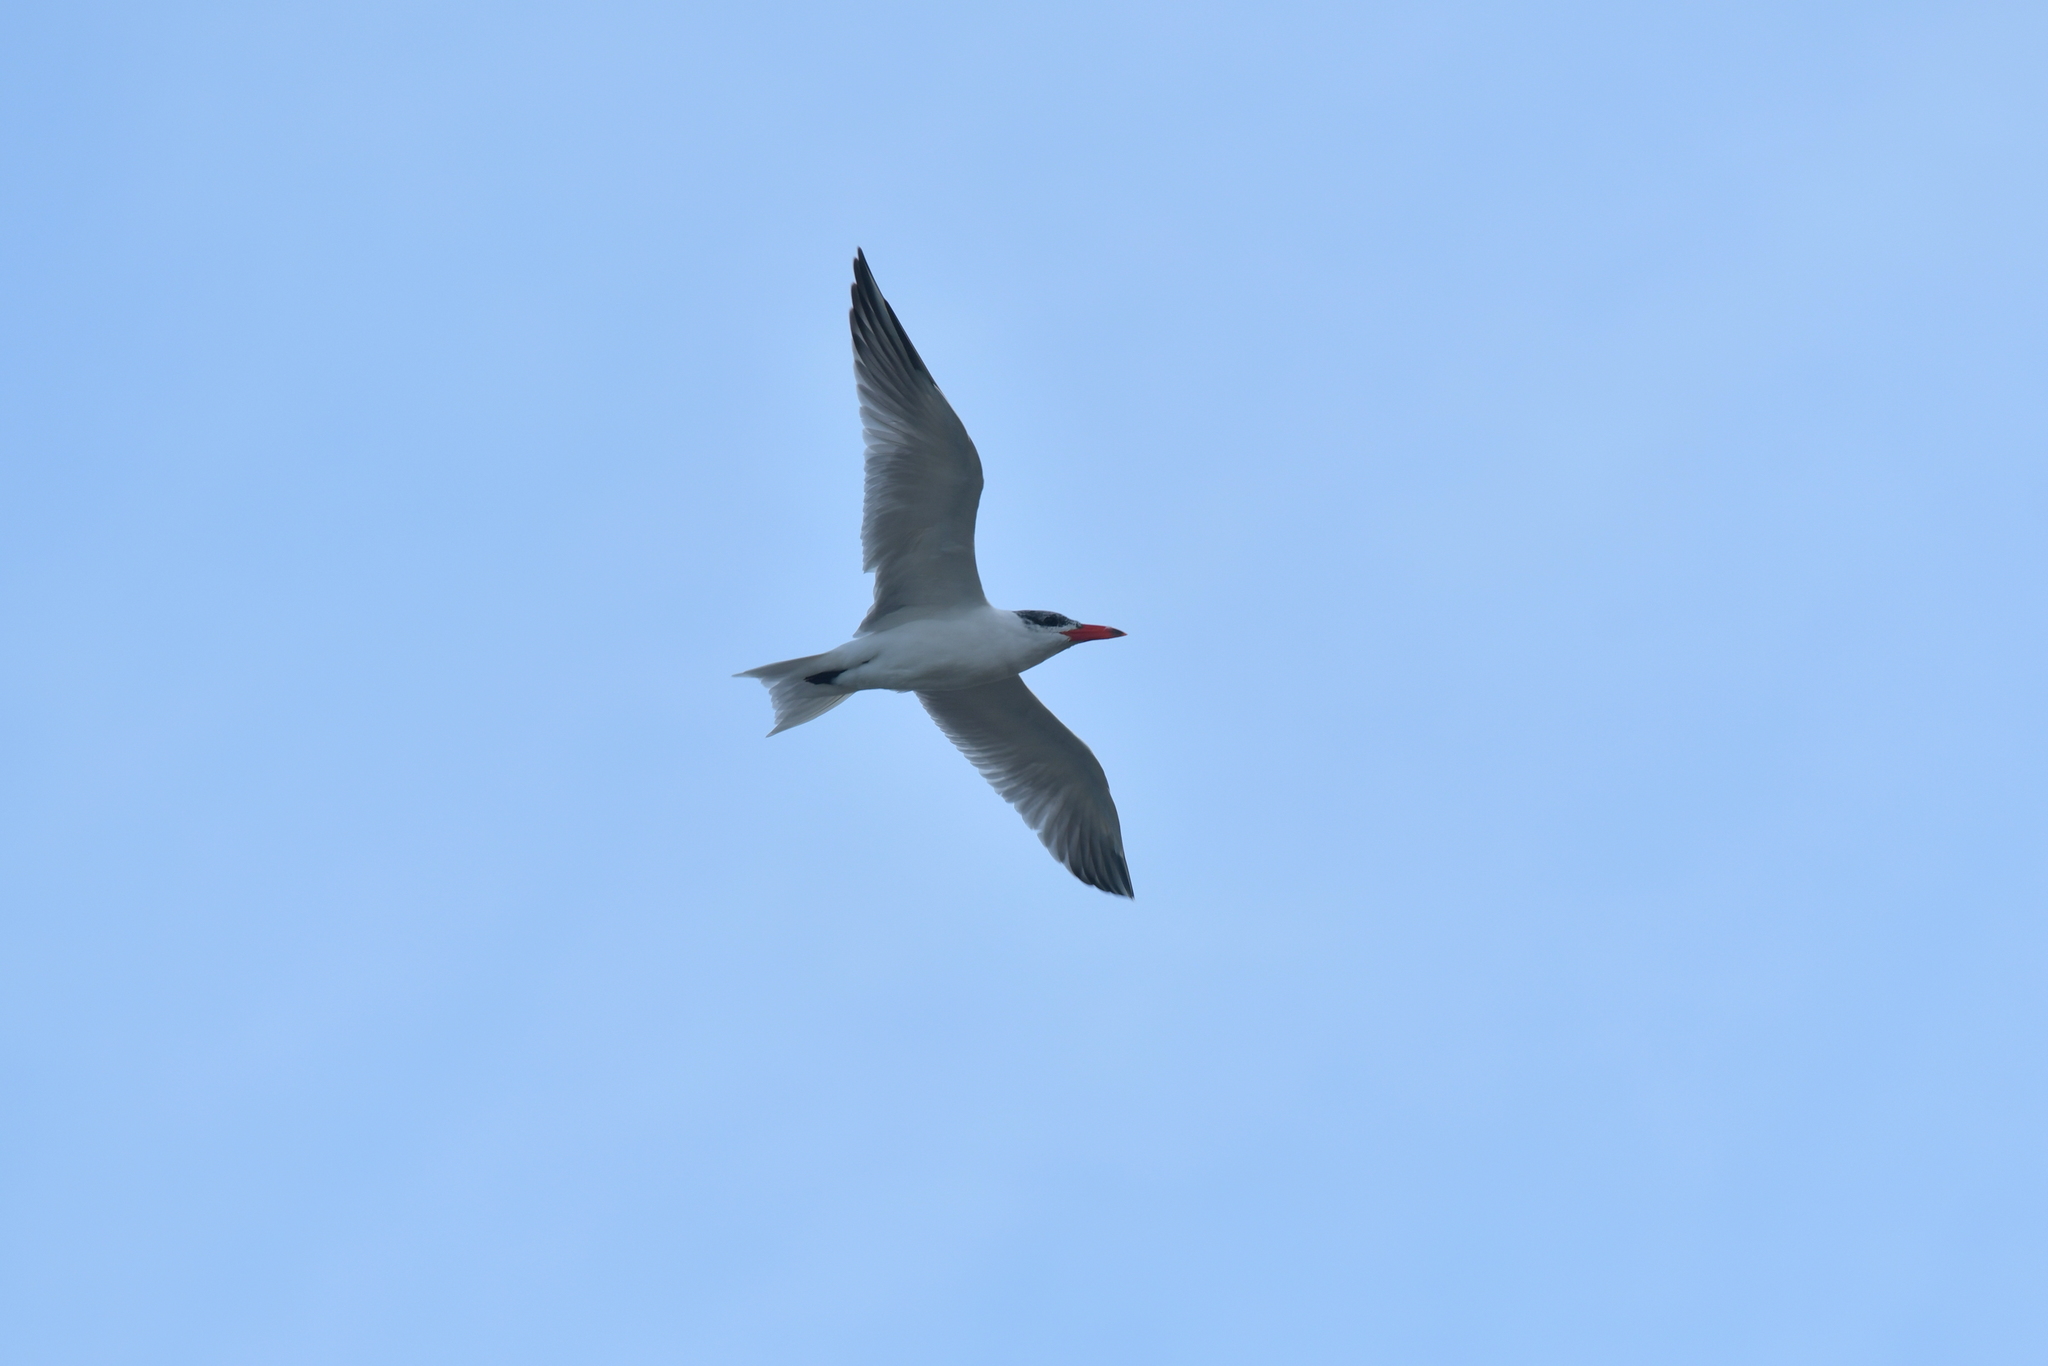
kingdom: Animalia
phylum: Chordata
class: Aves
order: Charadriiformes
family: Laridae
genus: Hydroprogne
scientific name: Hydroprogne caspia
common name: Caspian tern
